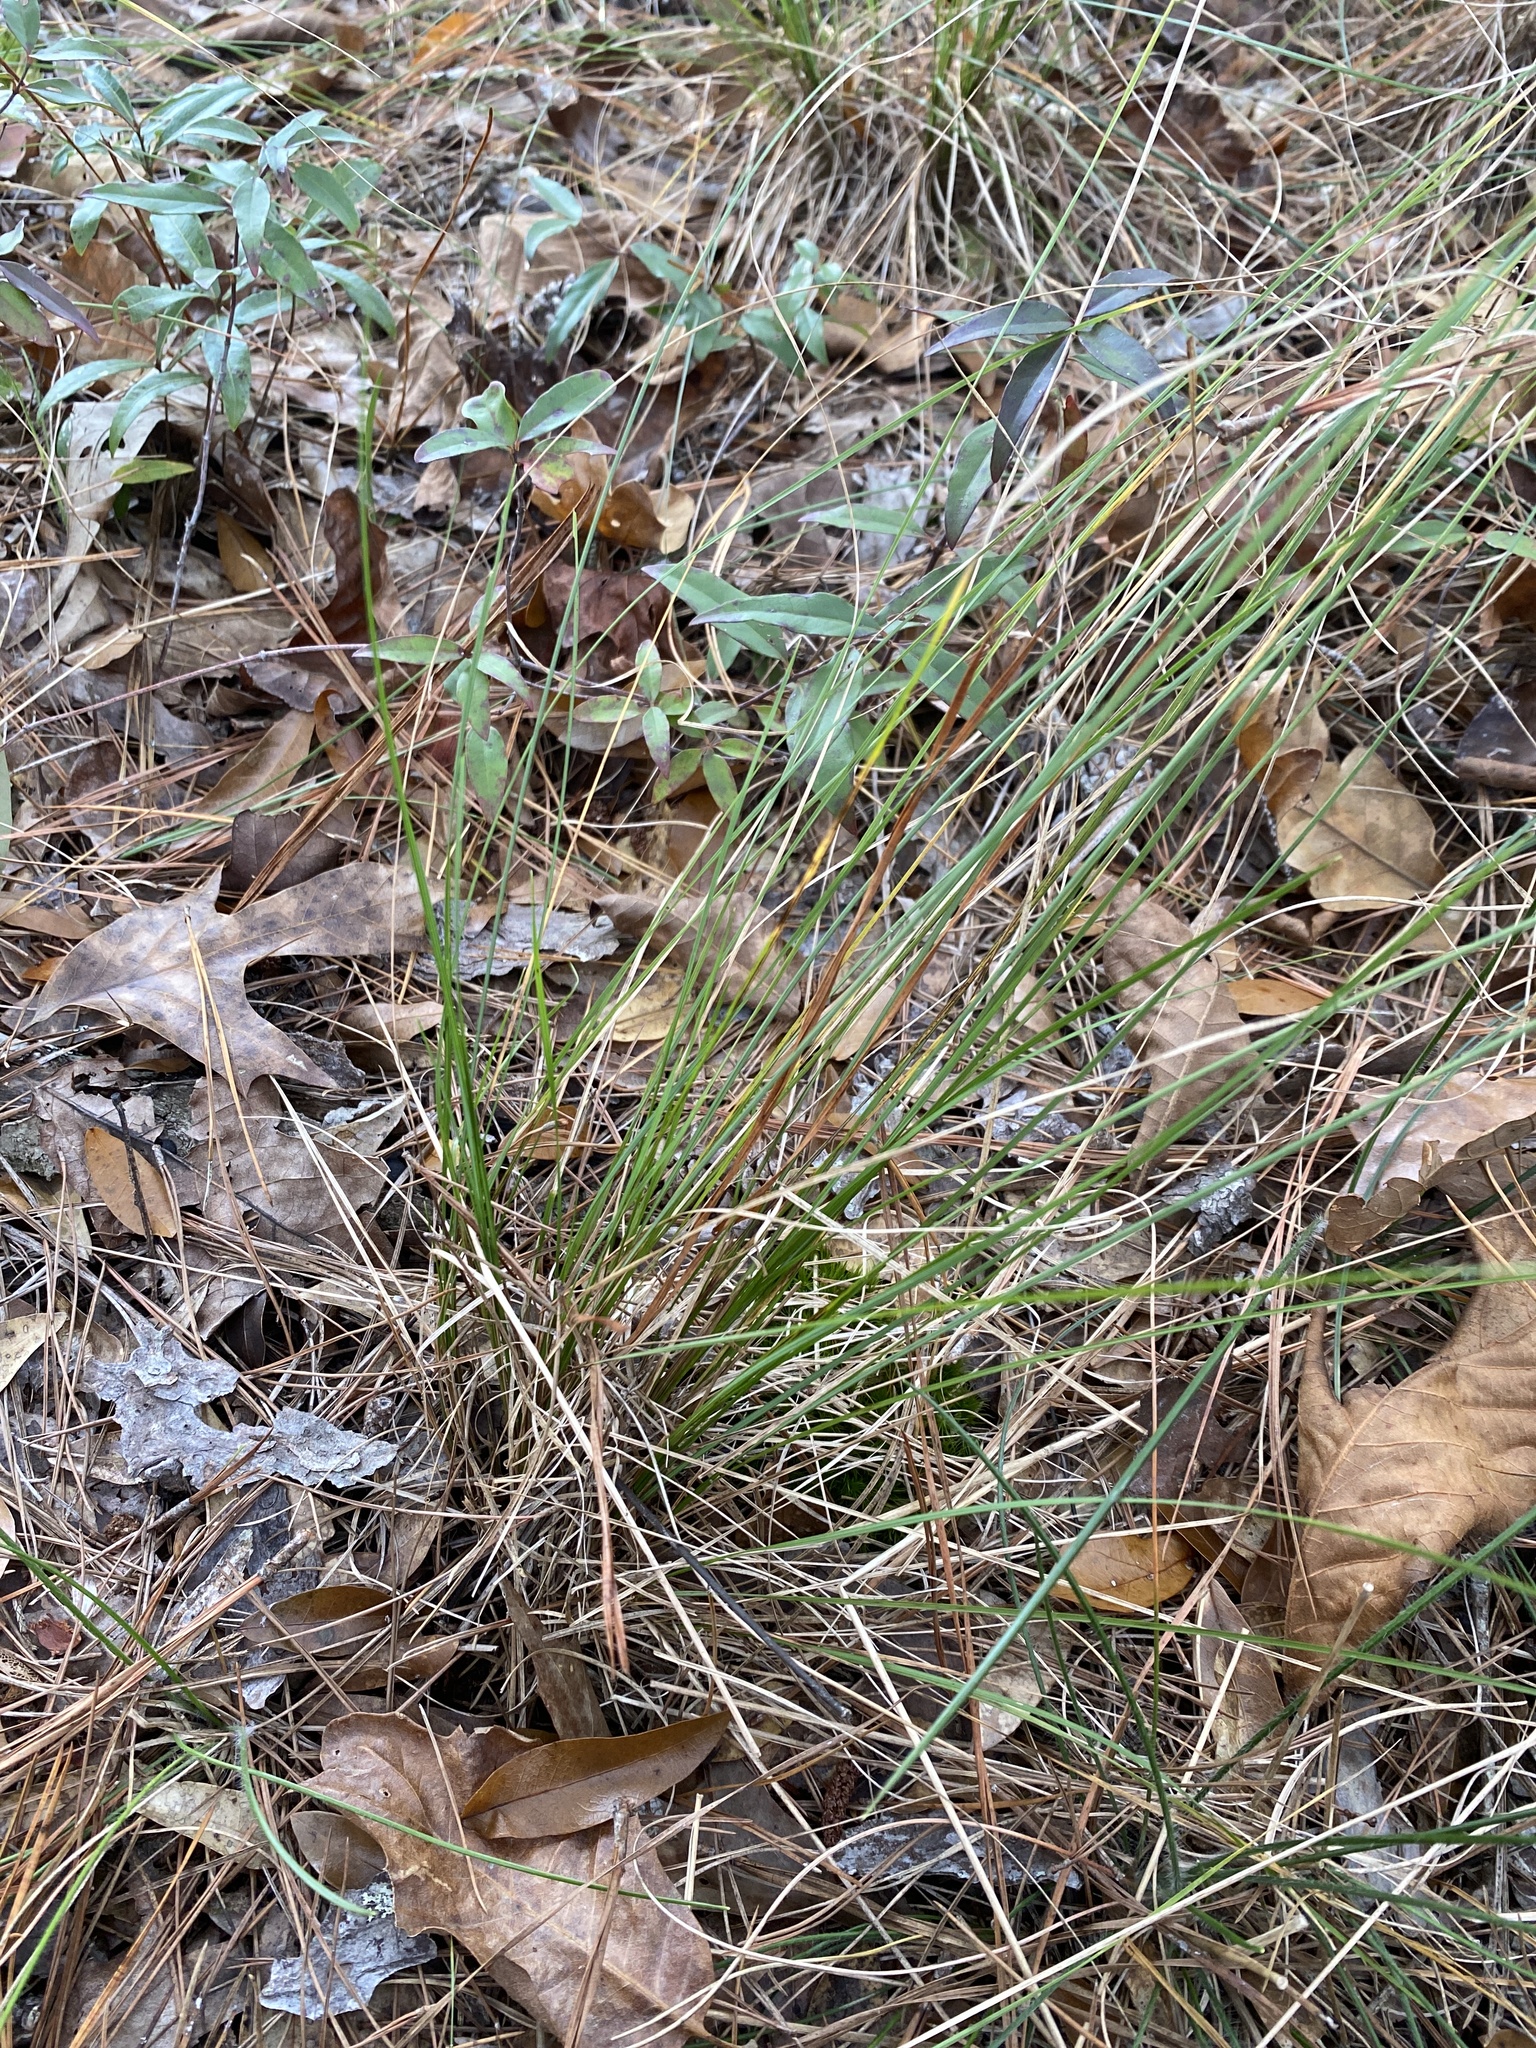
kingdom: Plantae
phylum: Tracheophyta
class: Liliopsida
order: Poales
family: Poaceae
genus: Piptochaetium
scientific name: Piptochaetium avenaceum
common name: Black bunchgrass
